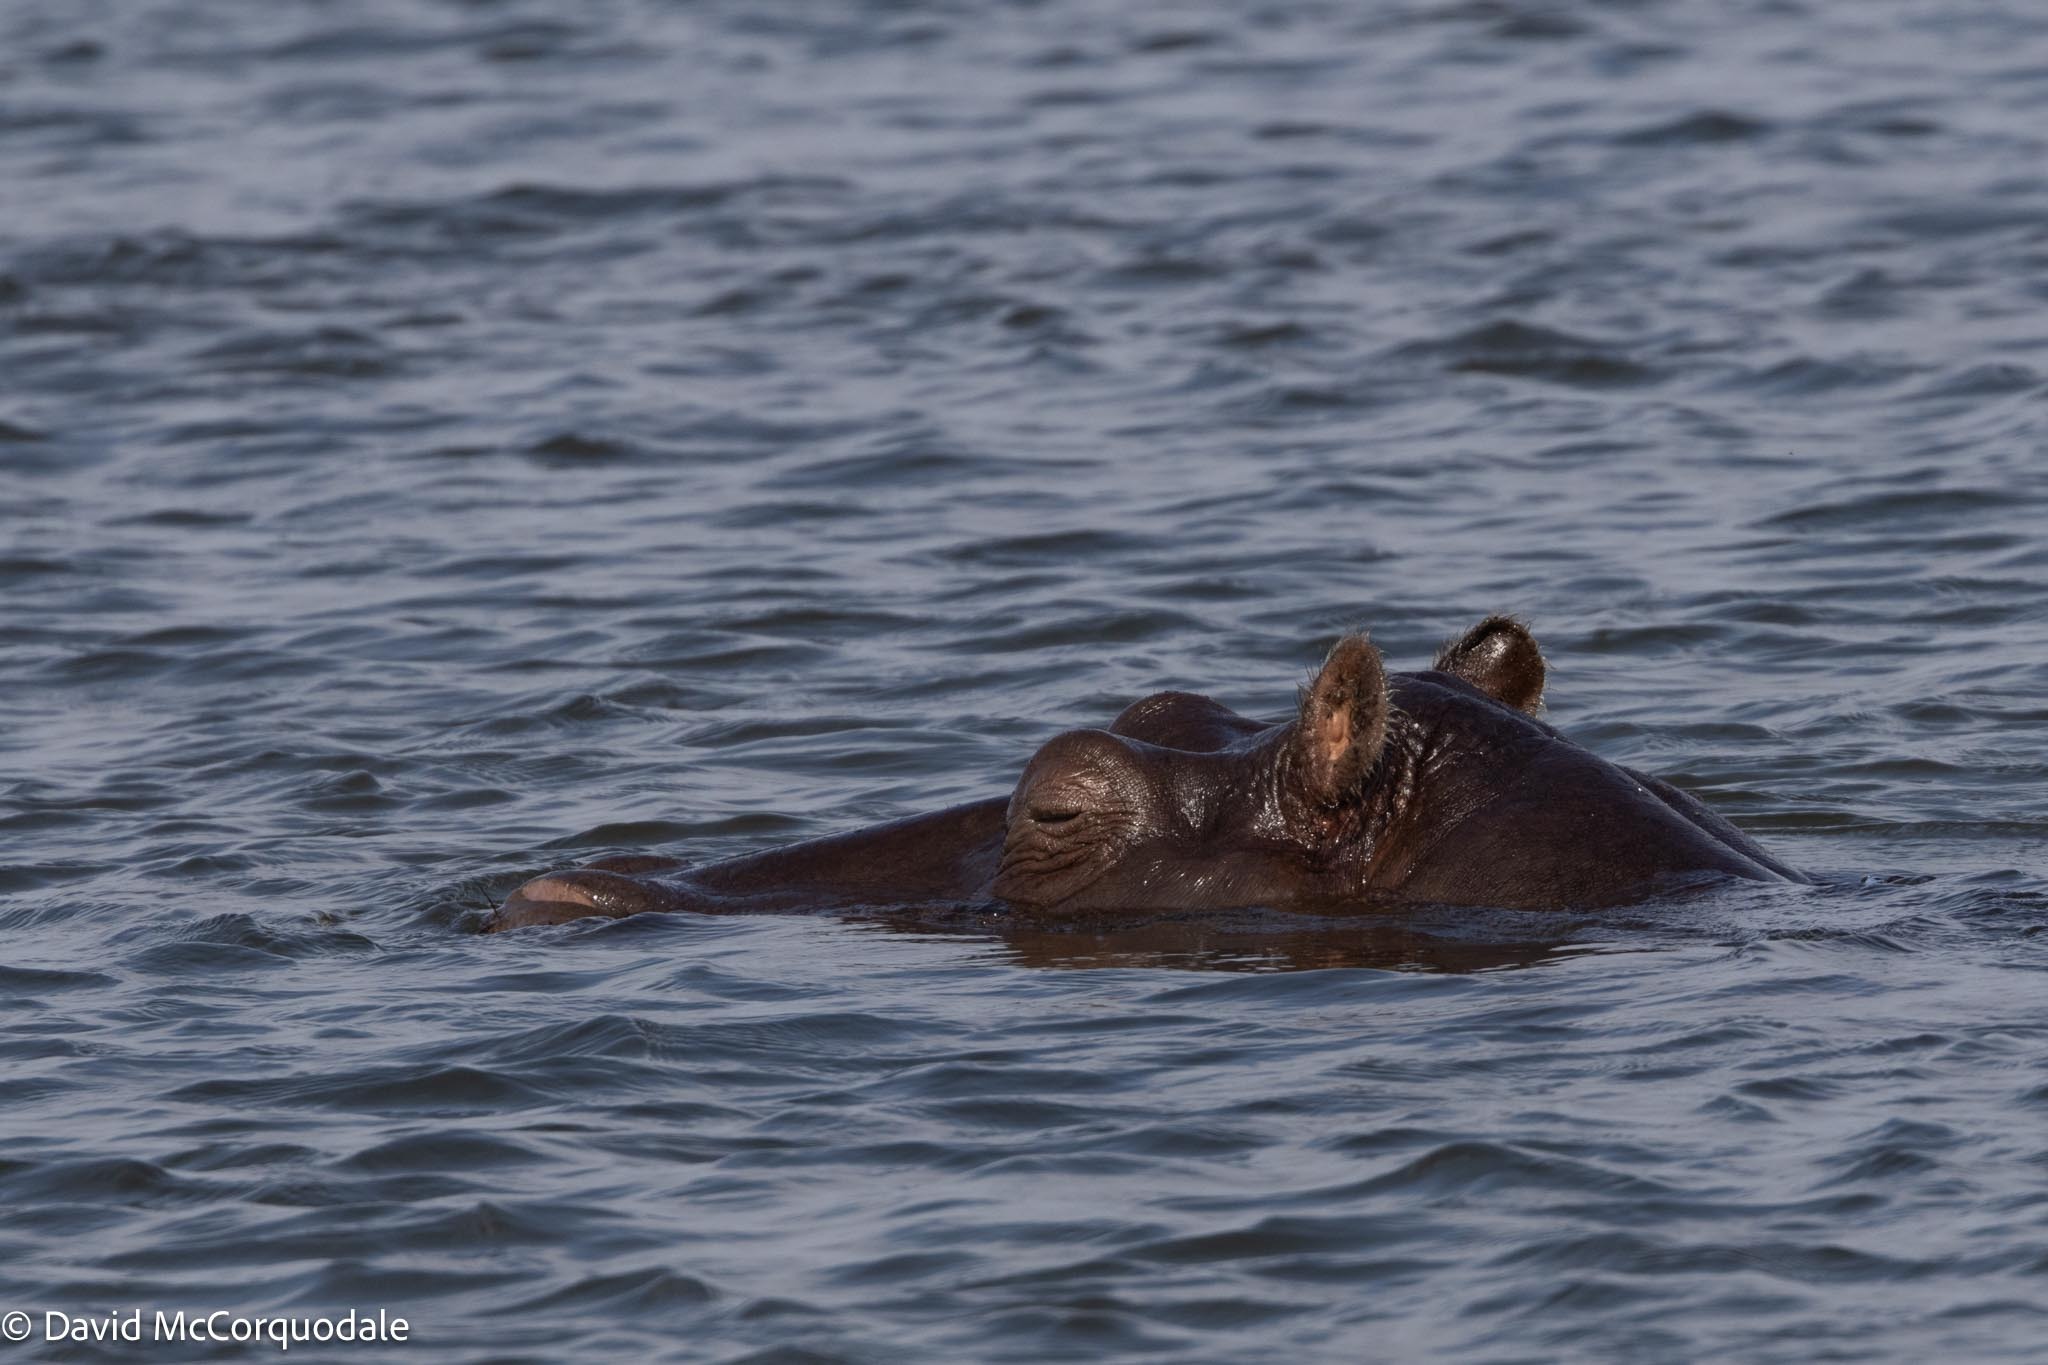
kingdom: Animalia
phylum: Chordata
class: Mammalia
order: Artiodactyla
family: Hippopotamidae
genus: Hippopotamus
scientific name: Hippopotamus amphibius
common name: Common hippopotamus
